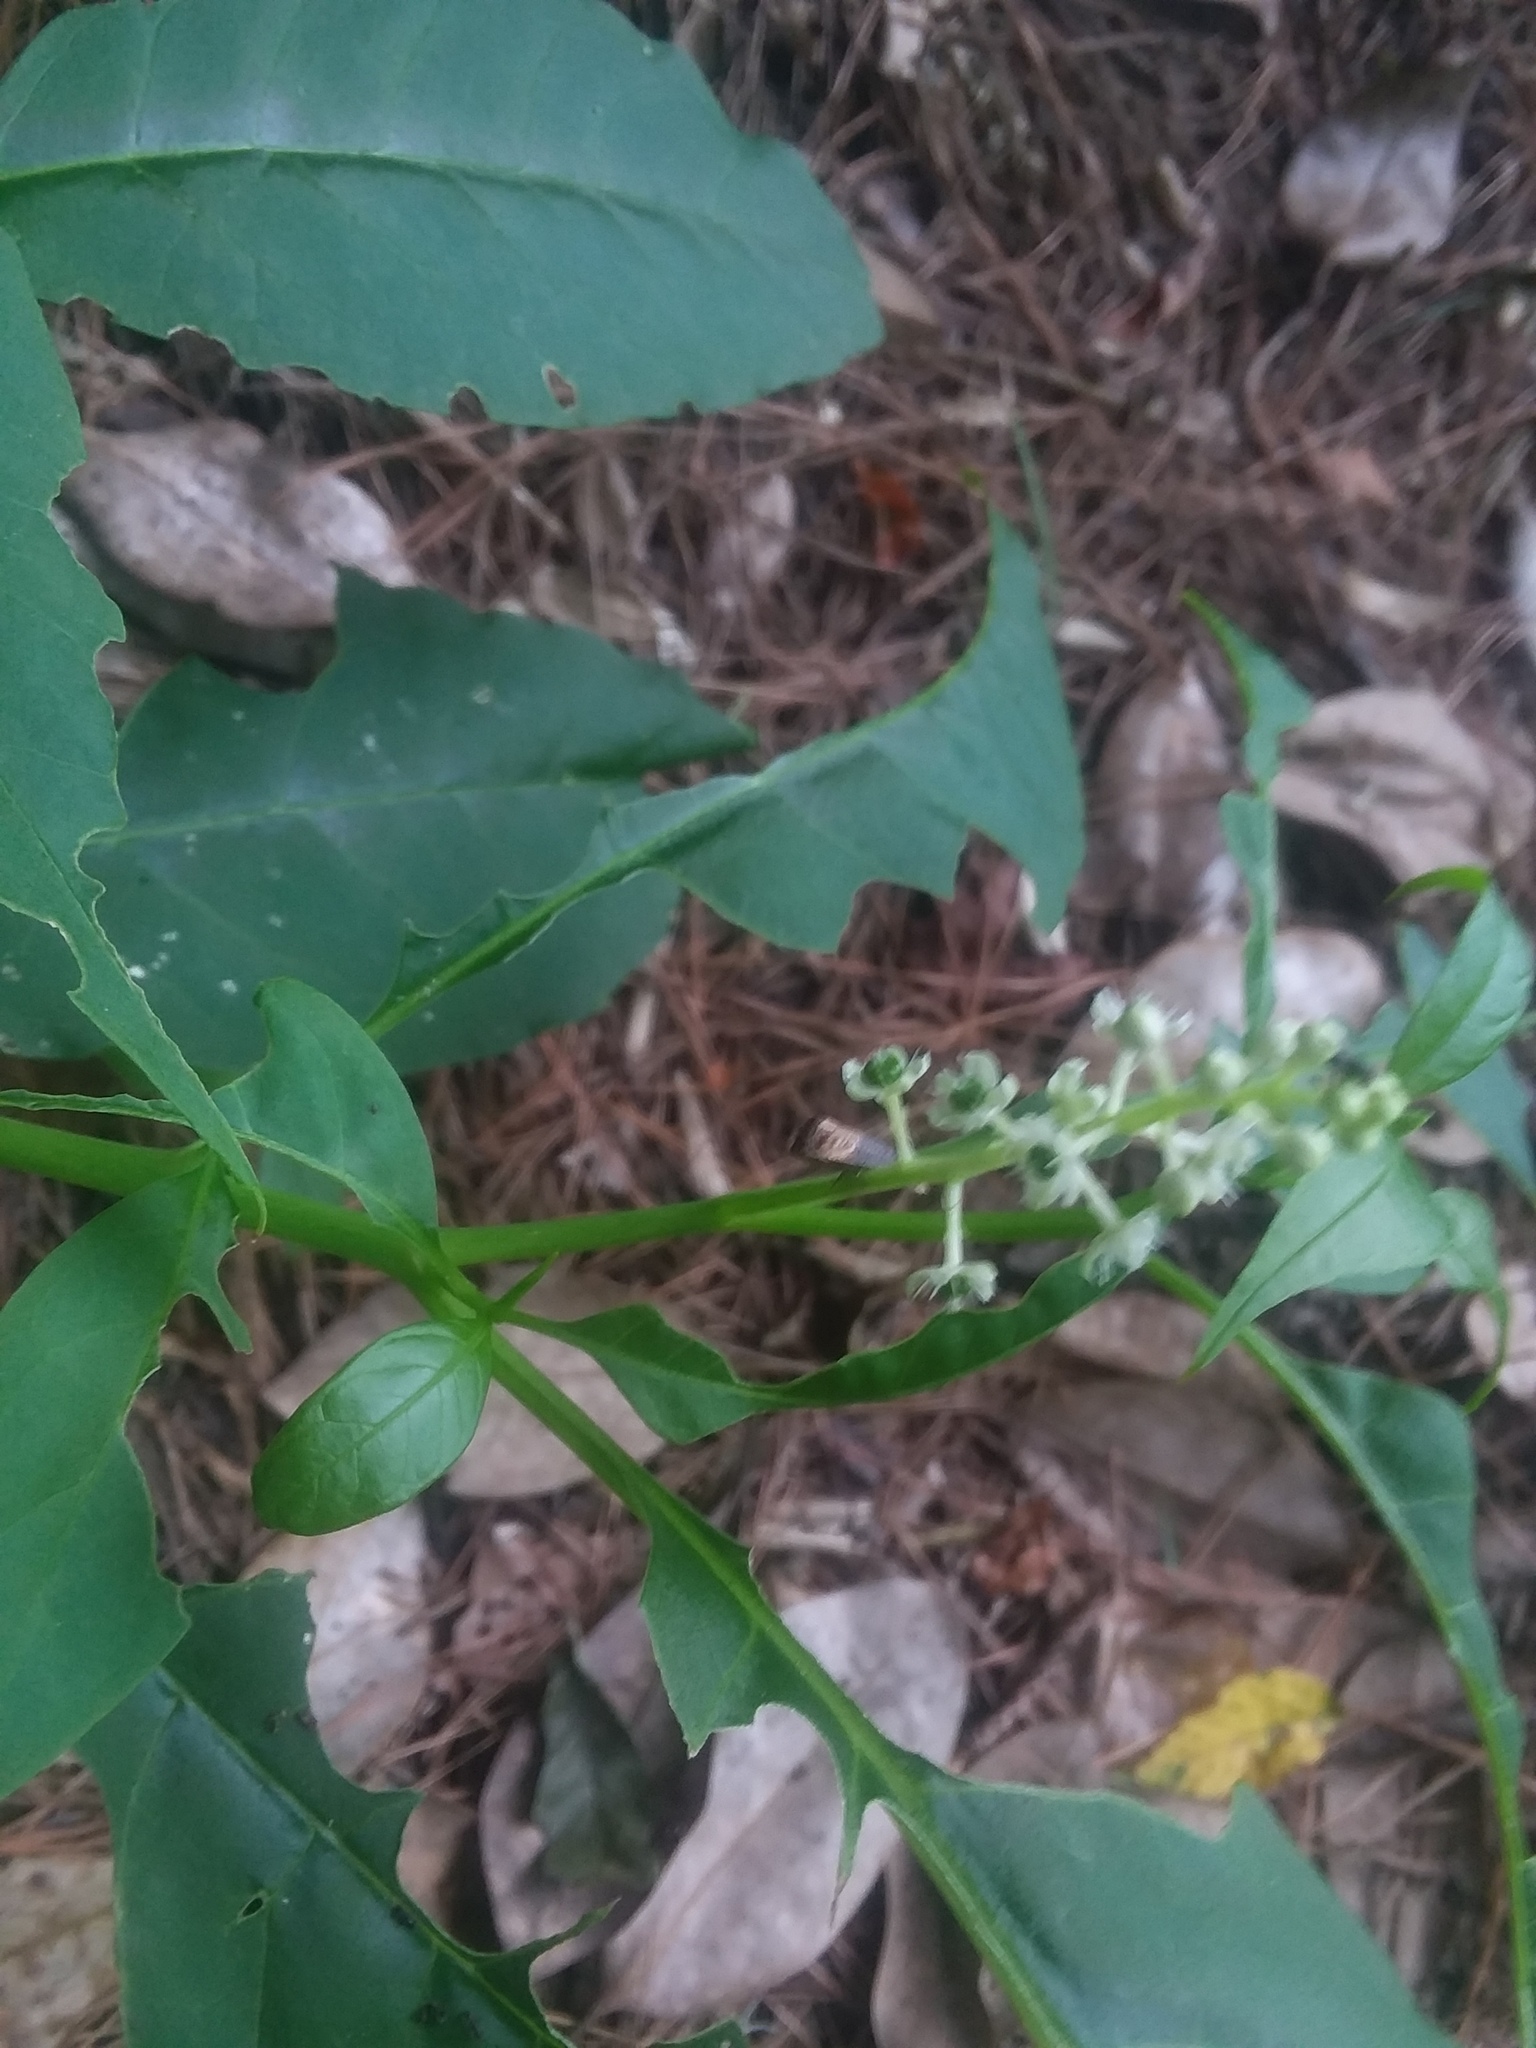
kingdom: Plantae
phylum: Tracheophyta
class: Magnoliopsida
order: Caryophyllales
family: Phytolaccaceae
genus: Phytolacca
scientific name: Phytolacca americana
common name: American pokeweed
